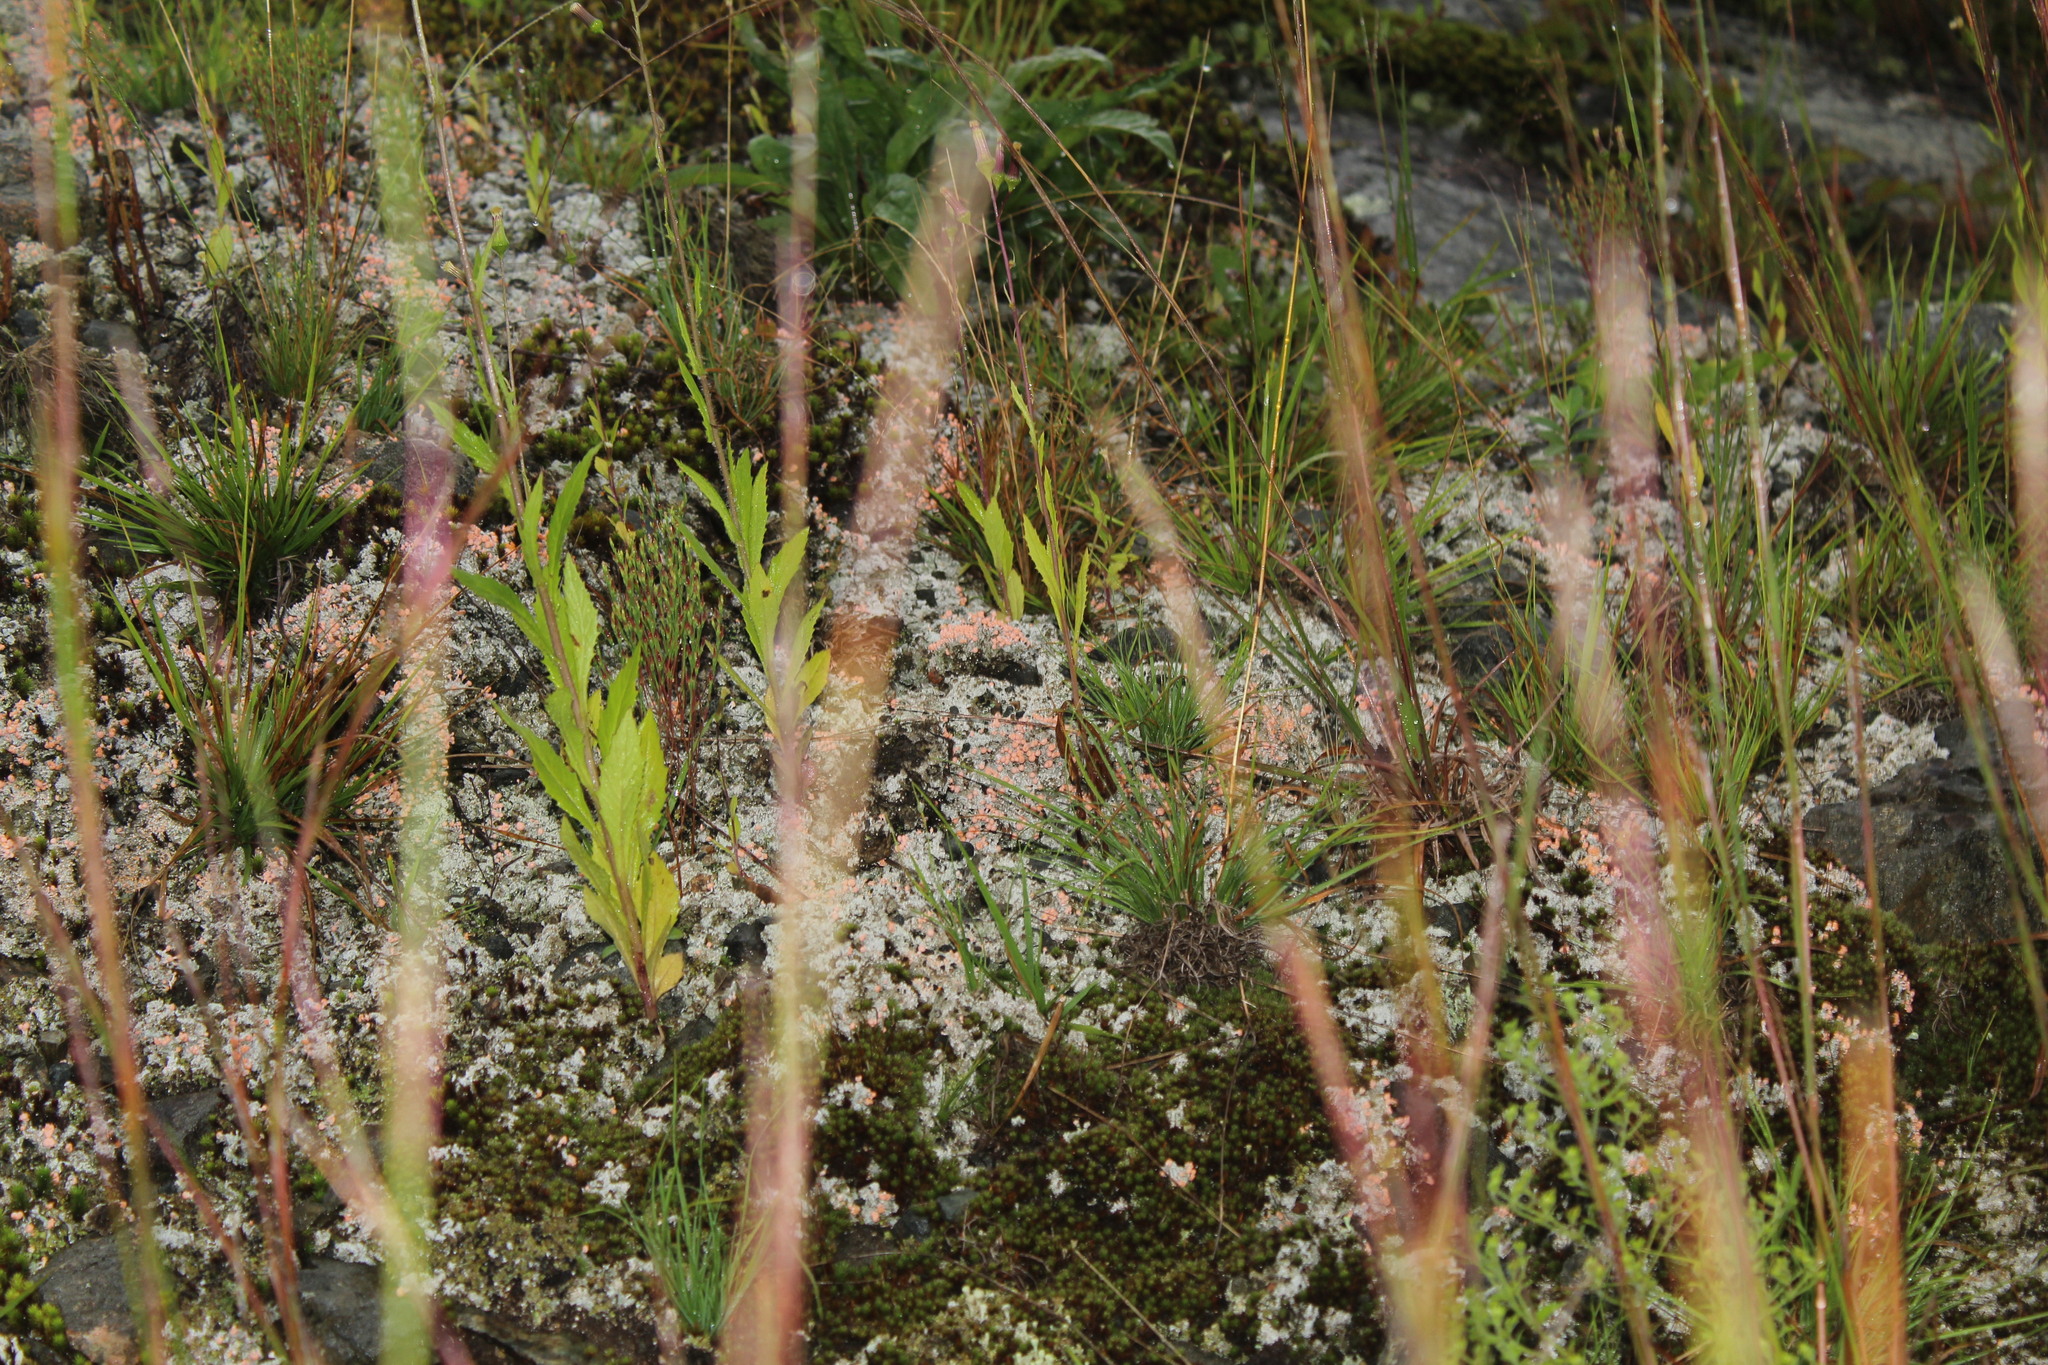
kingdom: Fungi
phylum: Ascomycota
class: Lecanoromycetes
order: Pertusariales
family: Icmadophilaceae
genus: Dibaeis
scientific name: Dibaeis baeomyces
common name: Pink earth lichen
